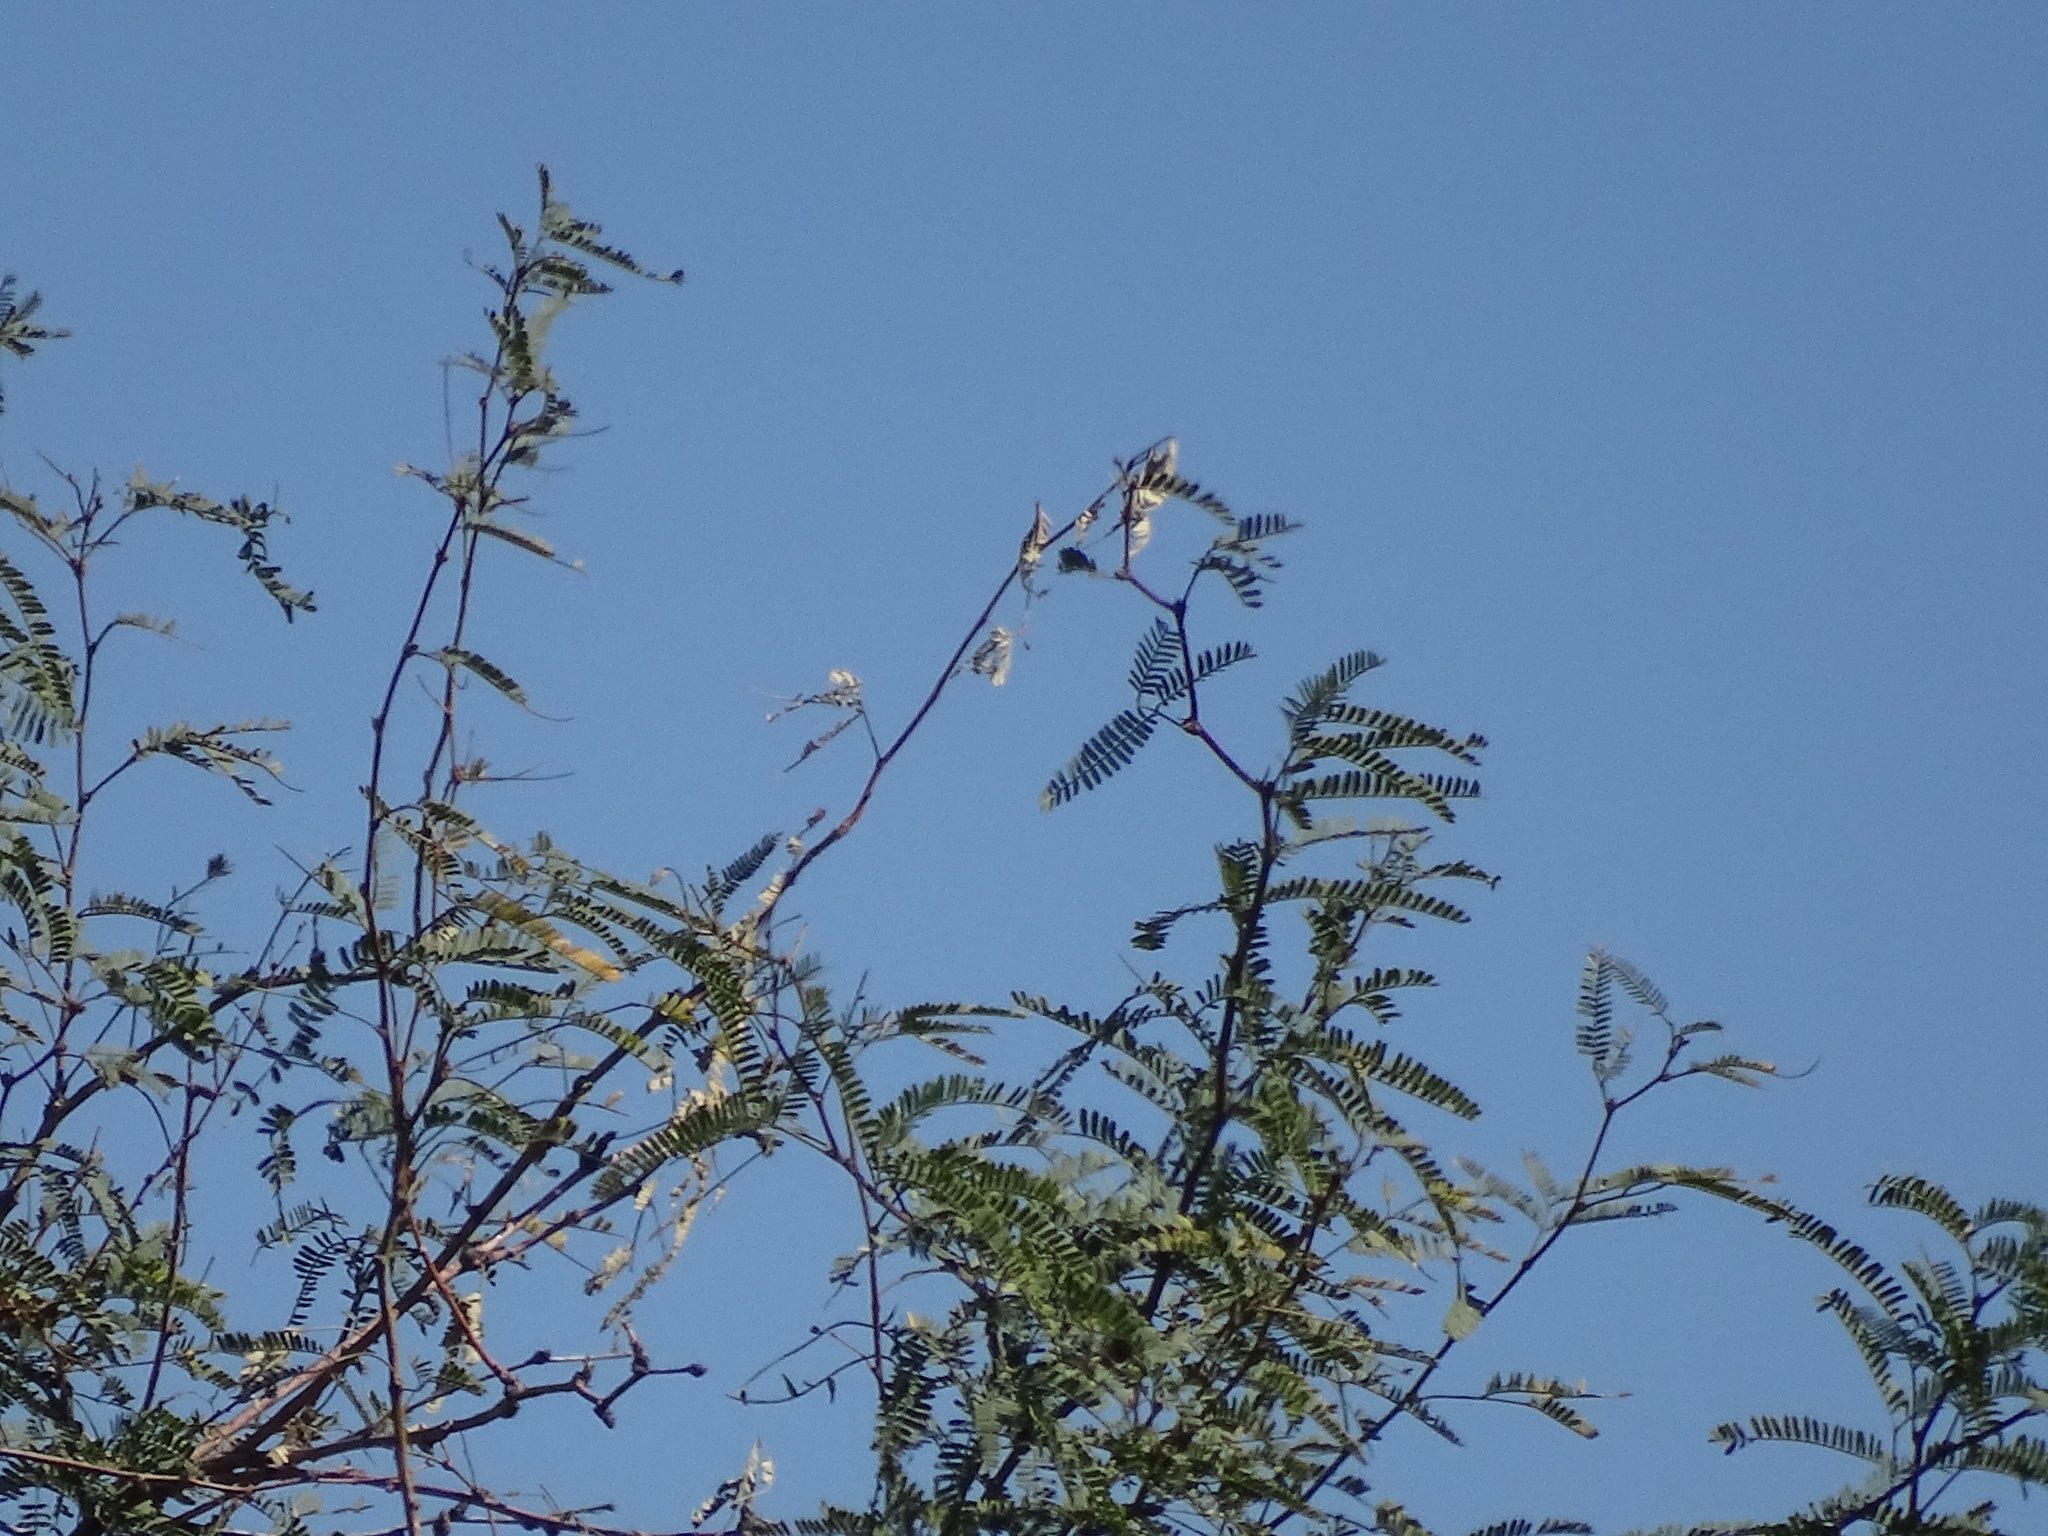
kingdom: Plantae
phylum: Tracheophyta
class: Magnoliopsida
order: Fabales
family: Fabaceae
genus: Prosopis
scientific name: Prosopis velutina
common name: Velvet mesquite
